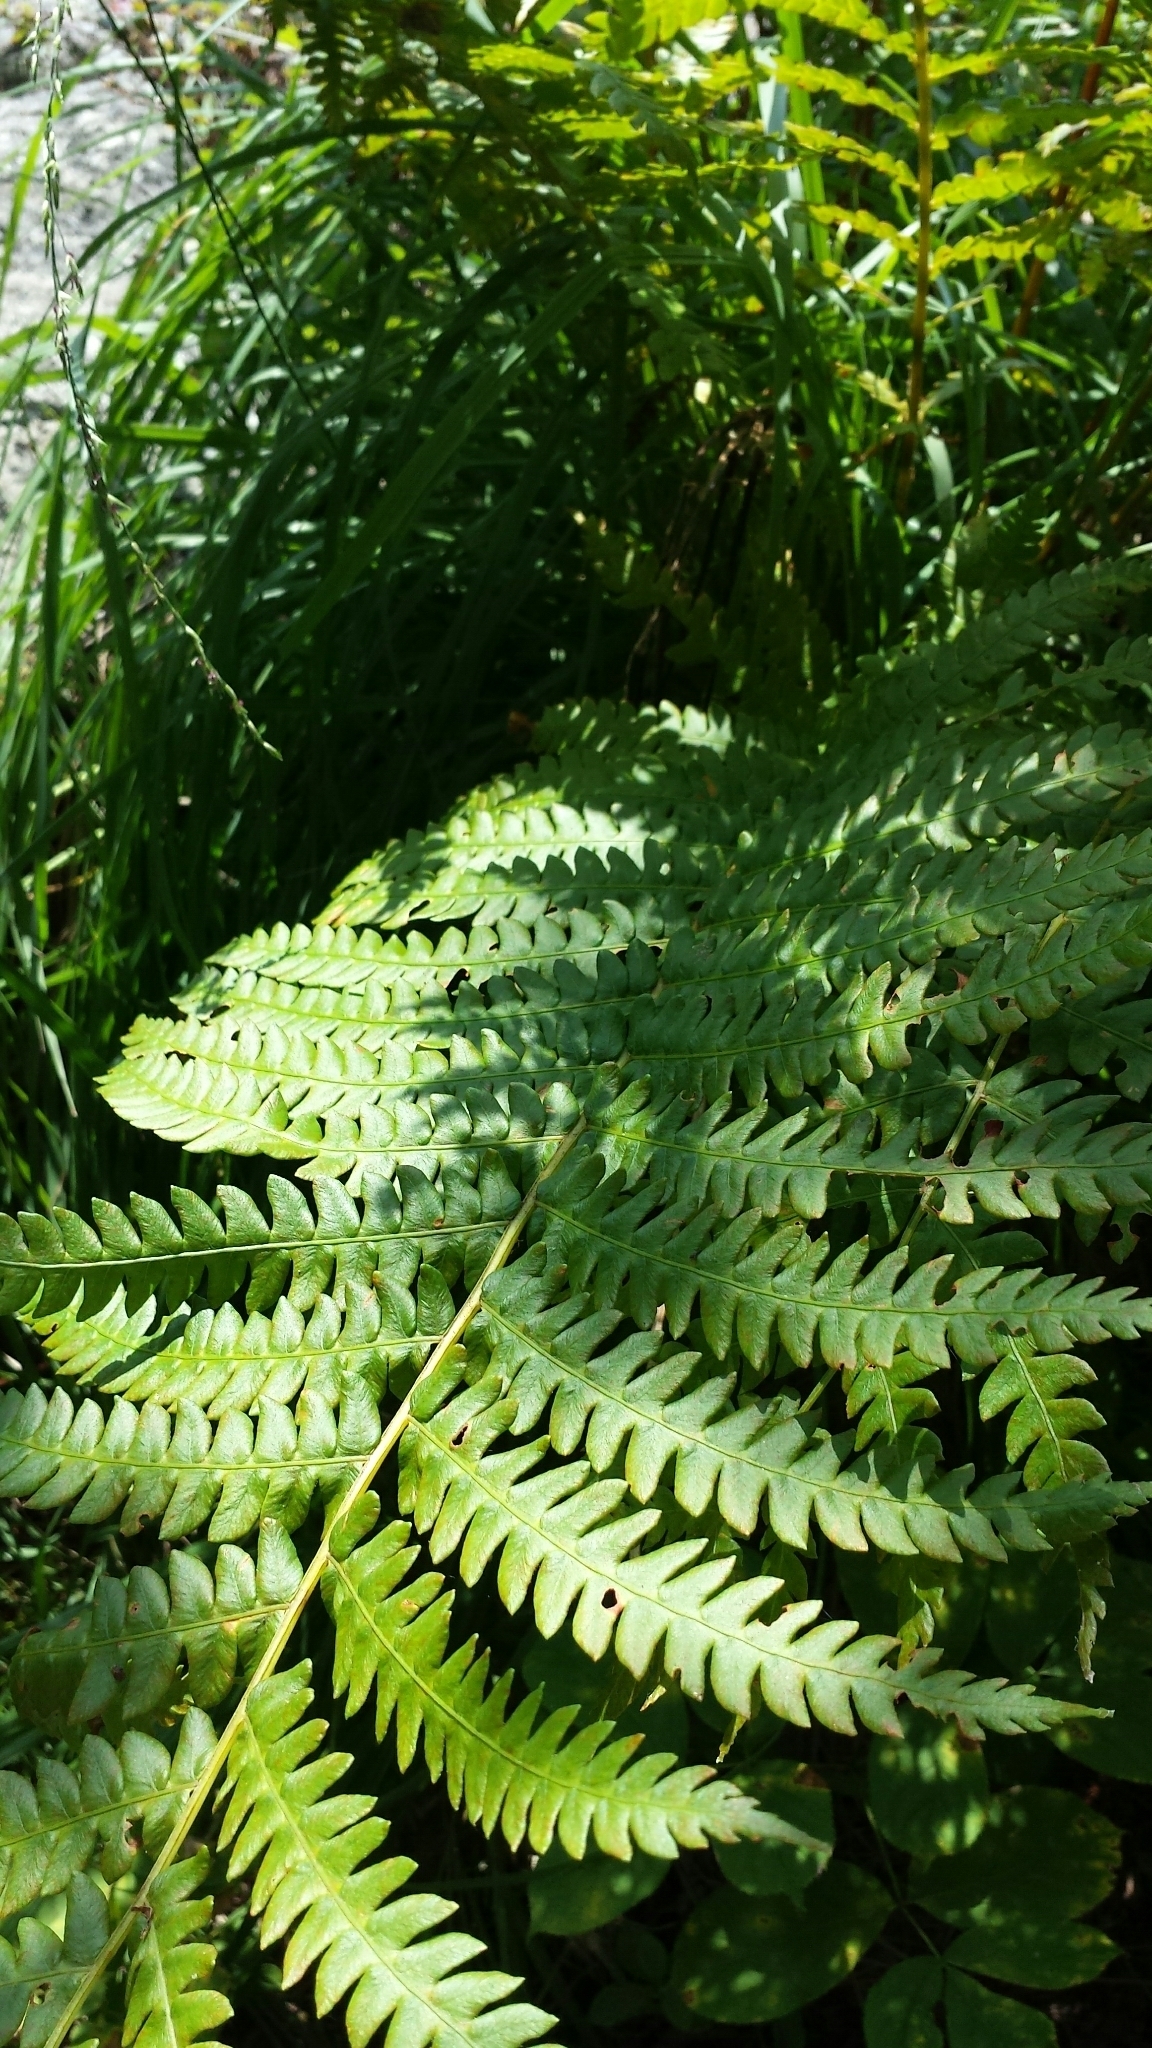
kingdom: Plantae
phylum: Tracheophyta
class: Polypodiopsida
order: Osmundales
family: Osmundaceae
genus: Osmundastrum
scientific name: Osmundastrum cinnamomeum
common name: Cinnamon fern
